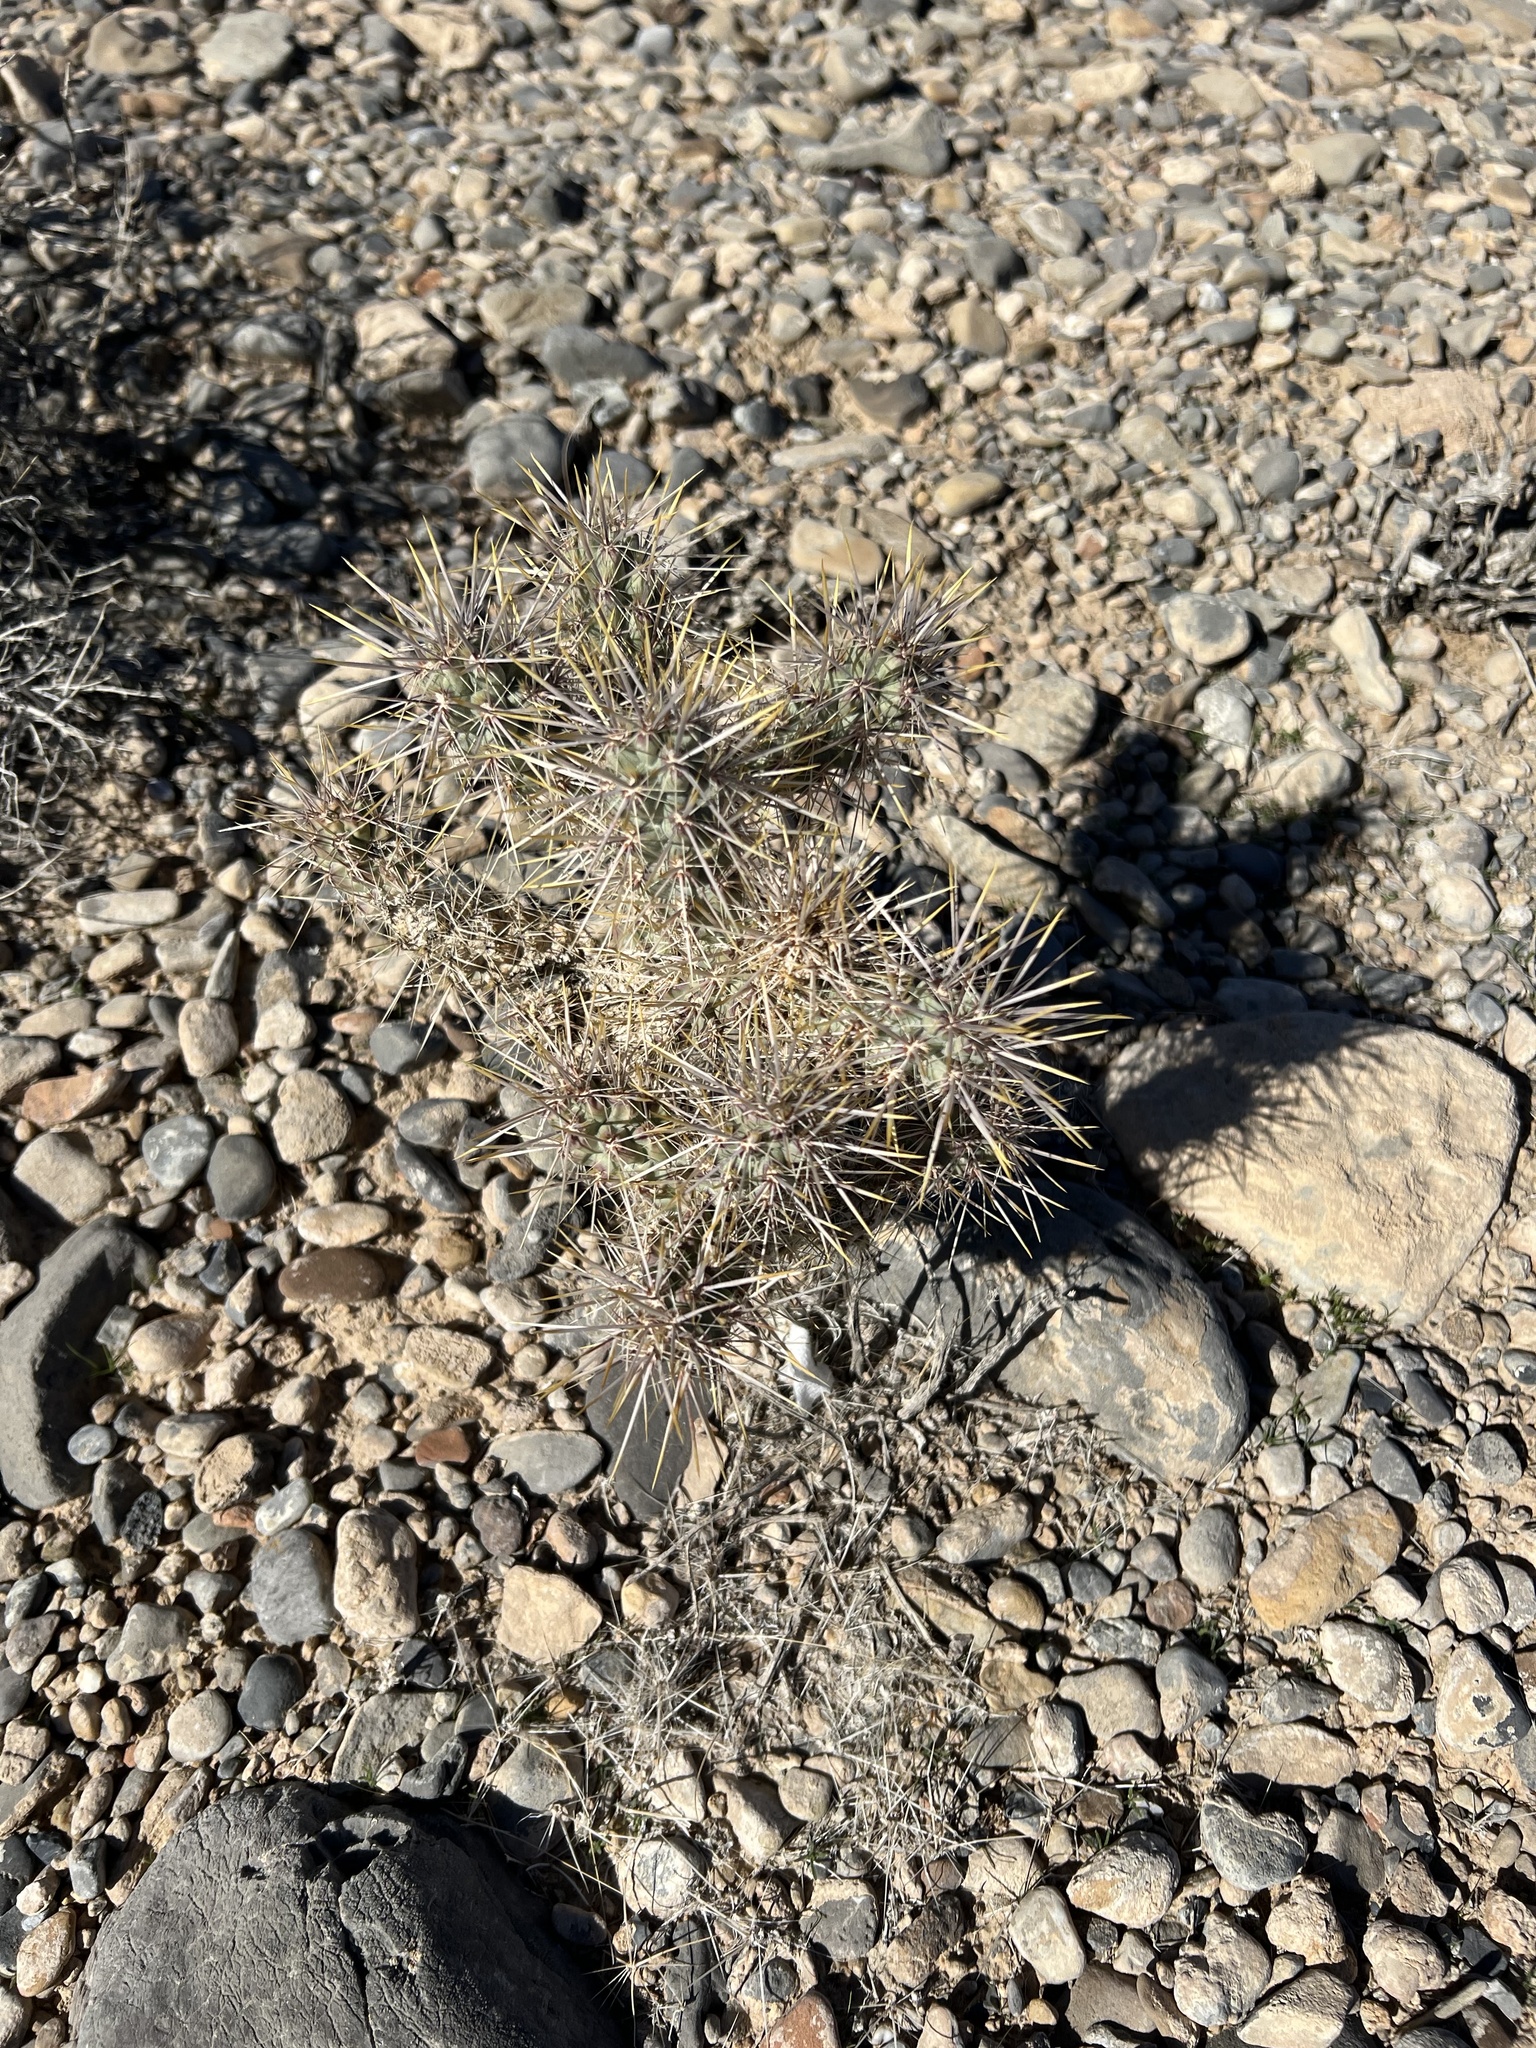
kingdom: Plantae
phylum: Tracheophyta
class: Magnoliopsida
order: Caryophyllales
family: Cactaceae
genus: Cylindropuntia
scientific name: Cylindropuntia echinocarpa
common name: Ground cholla
